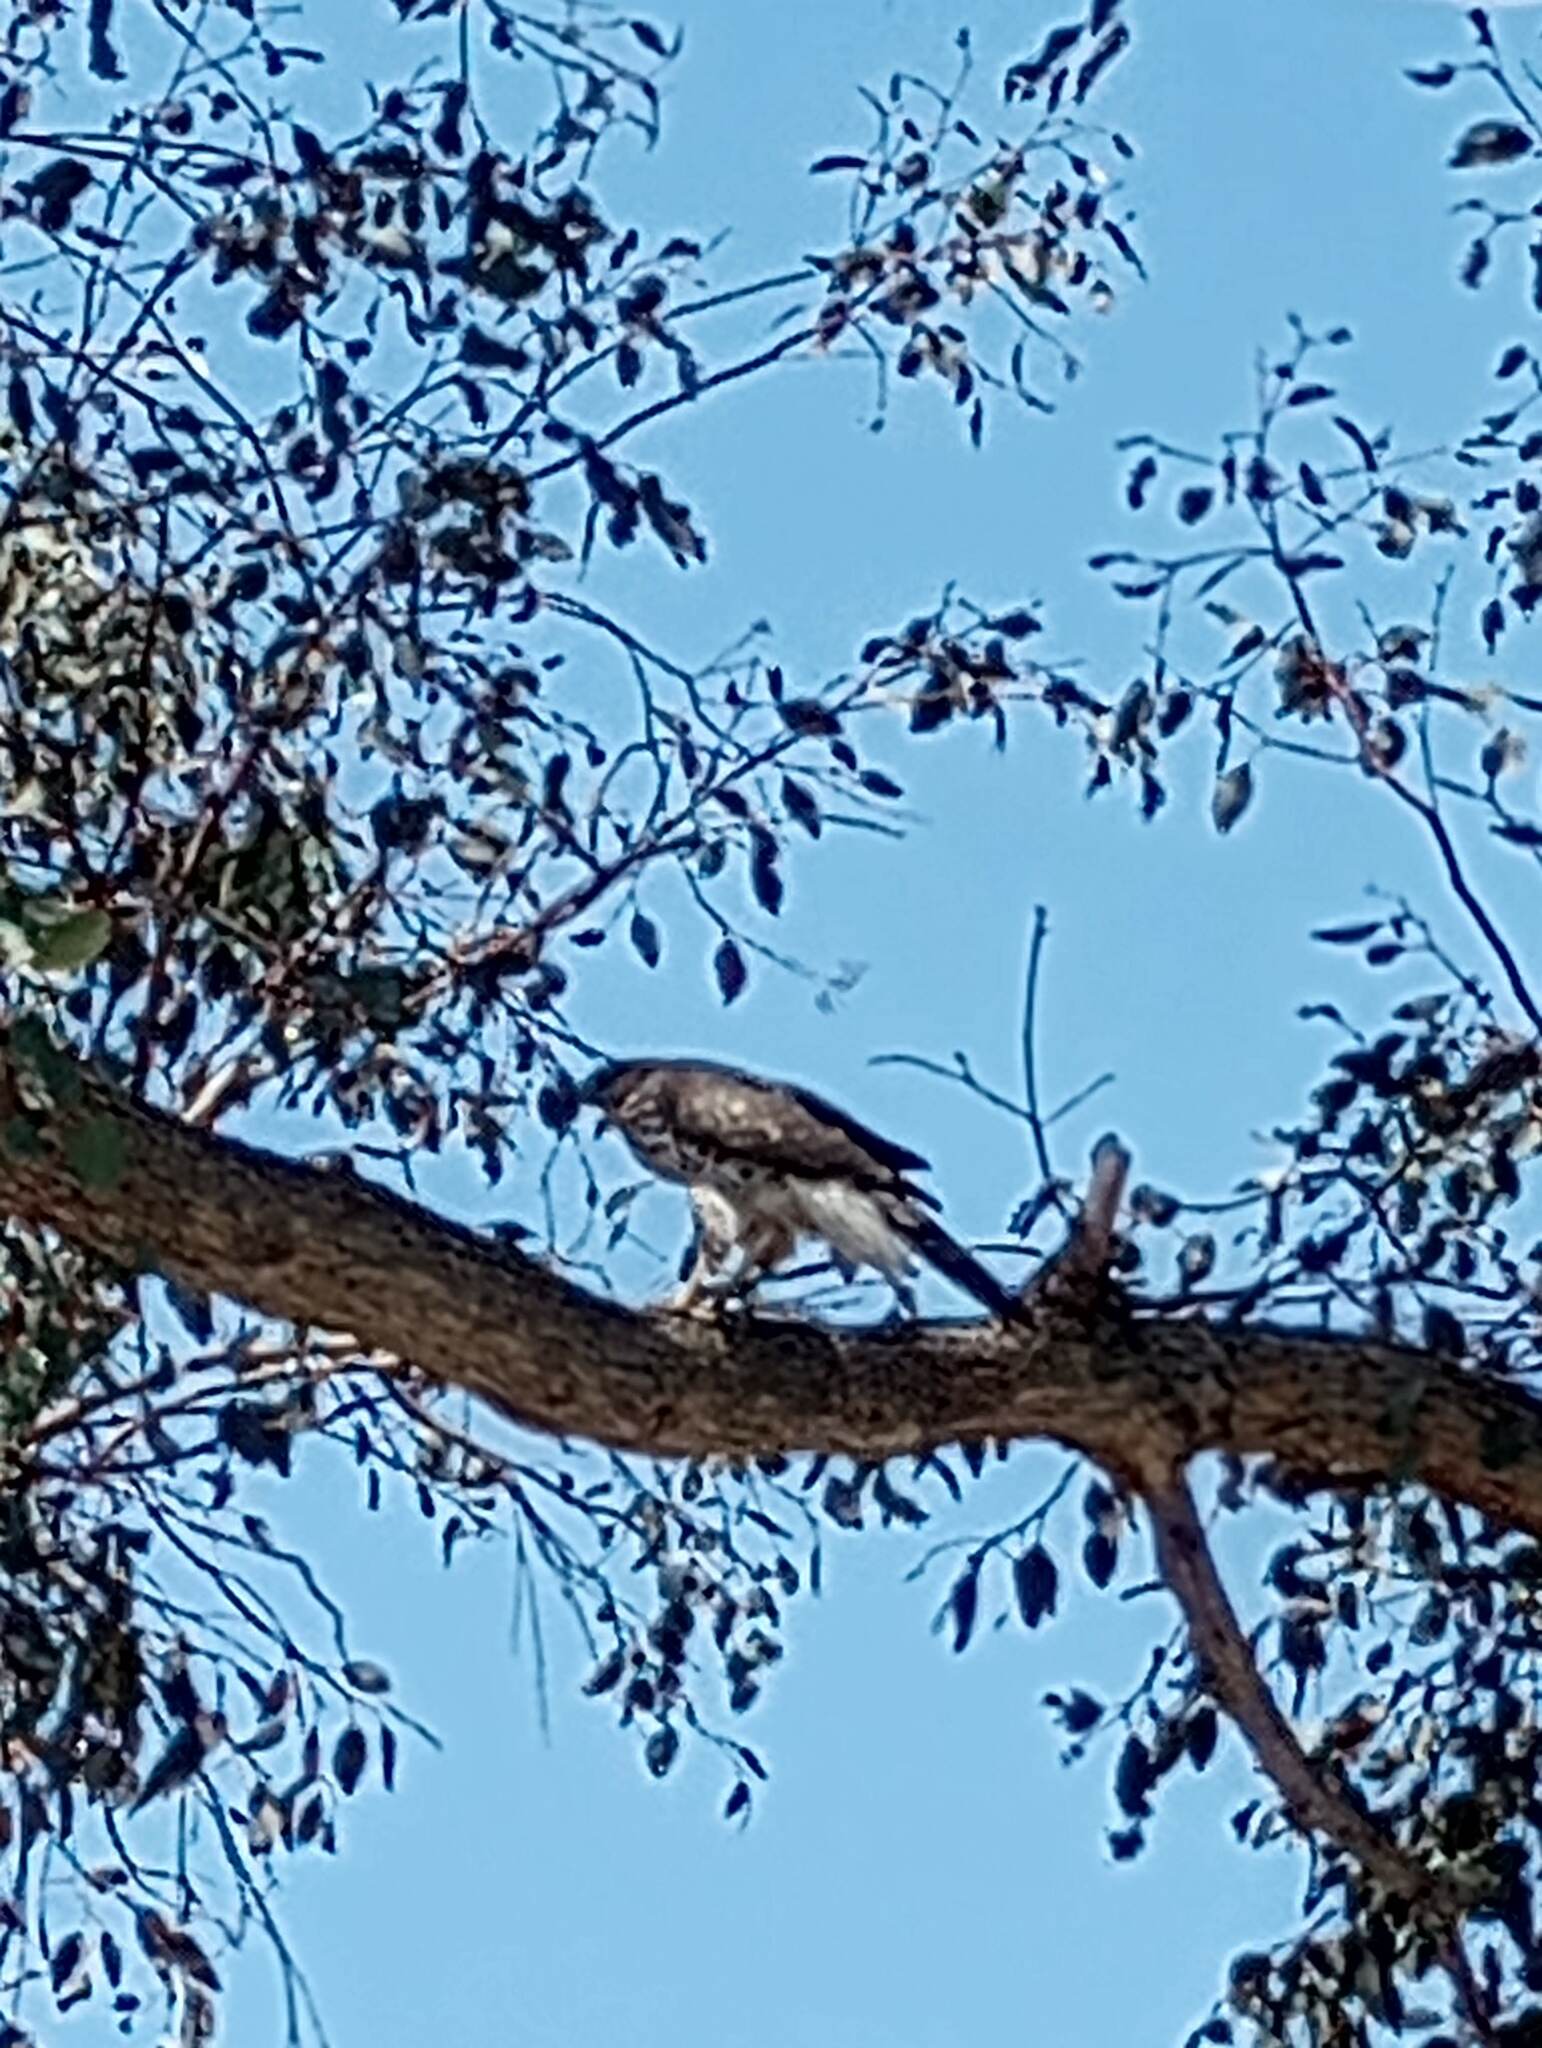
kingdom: Animalia
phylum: Chordata
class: Aves
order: Accipitriformes
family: Accipitridae
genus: Accipiter
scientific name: Accipiter cooperii
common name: Cooper's hawk
